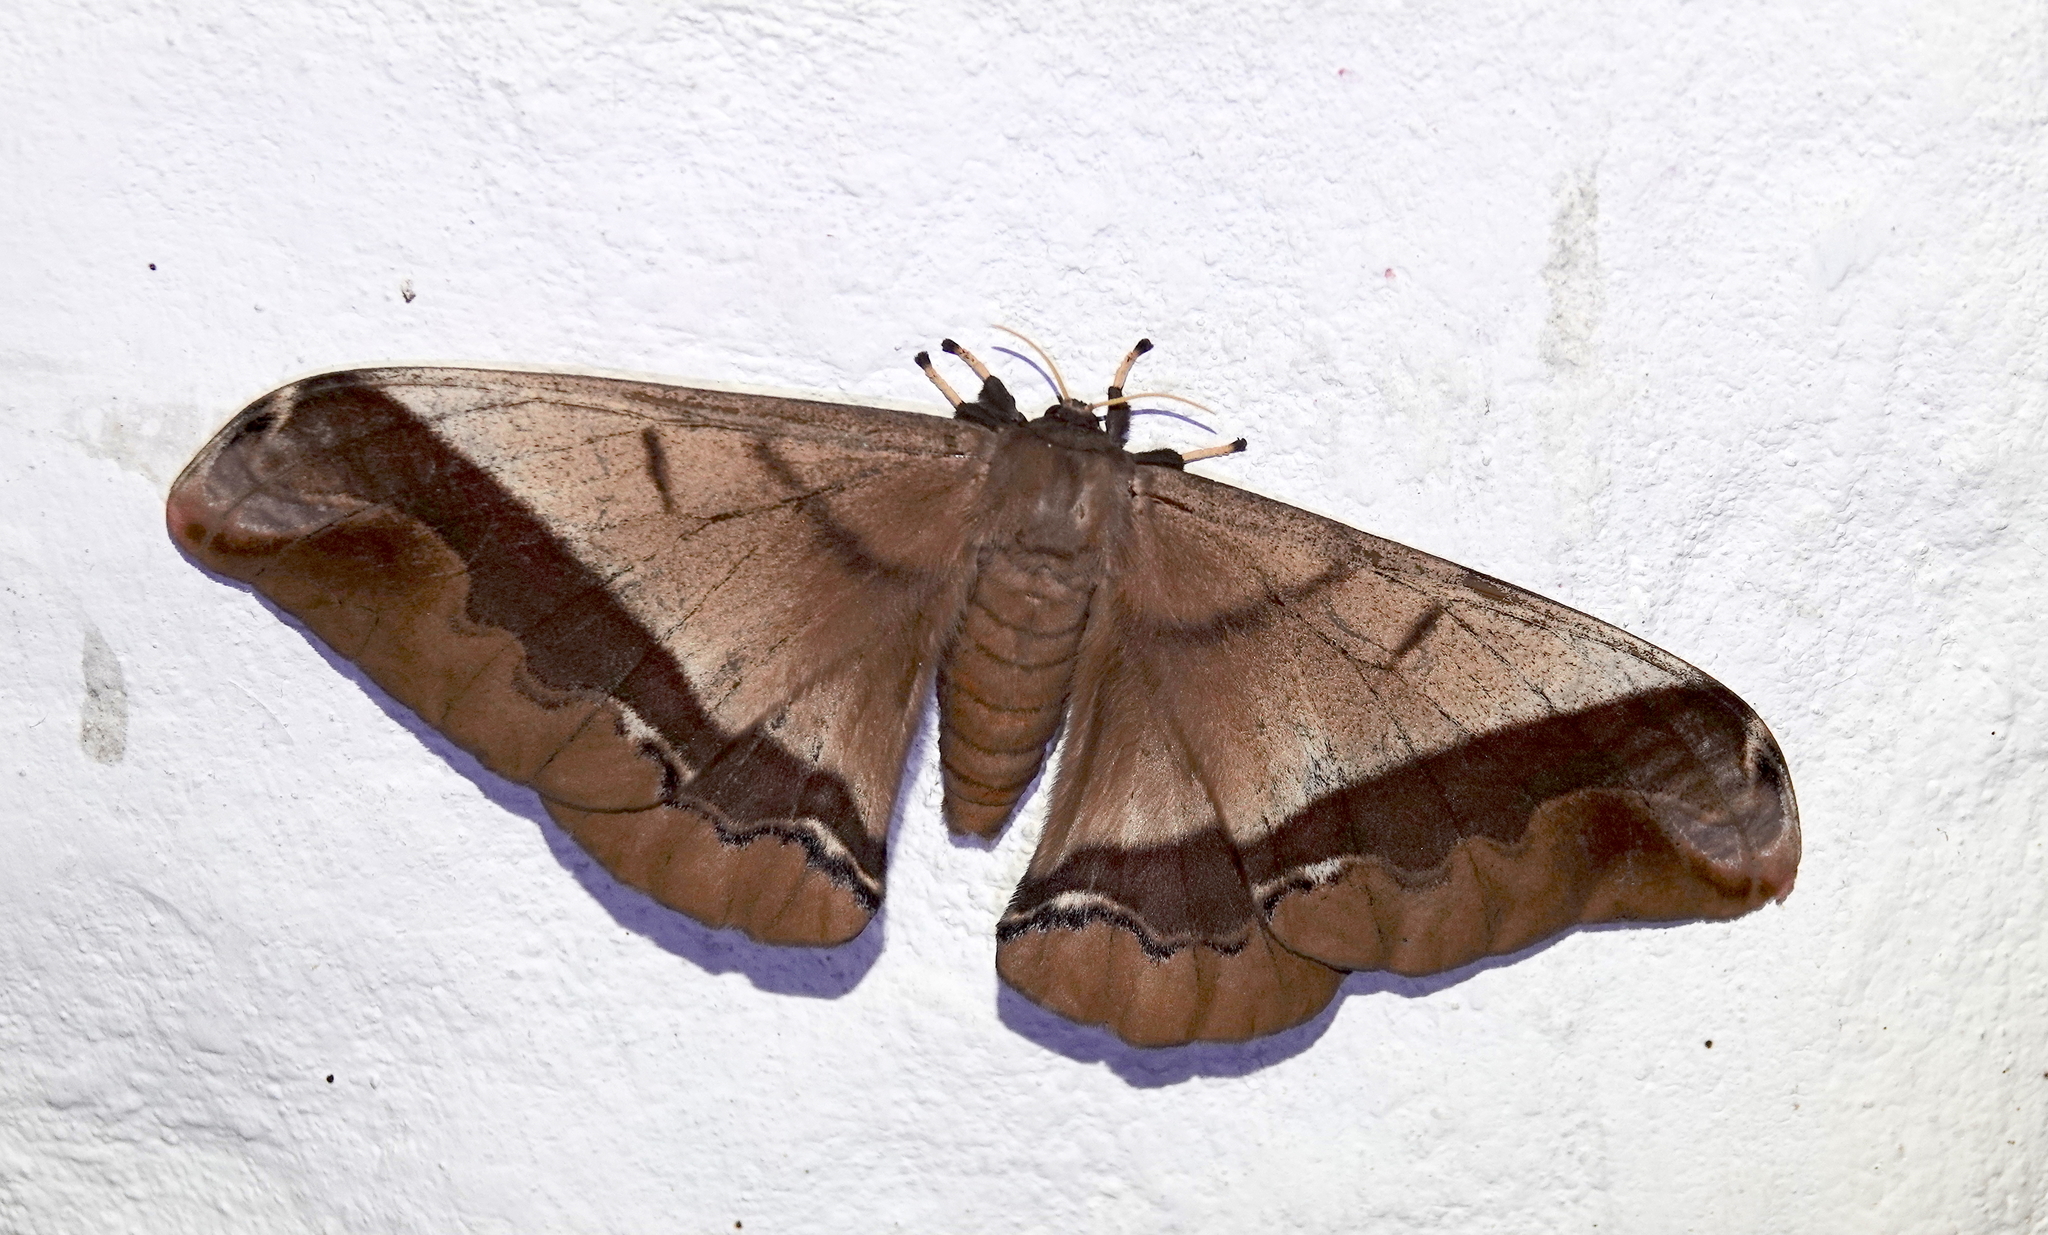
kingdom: Animalia
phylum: Arthropoda
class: Insecta
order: Lepidoptera
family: Saturniidae
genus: Arsenura
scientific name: Arsenura armida
